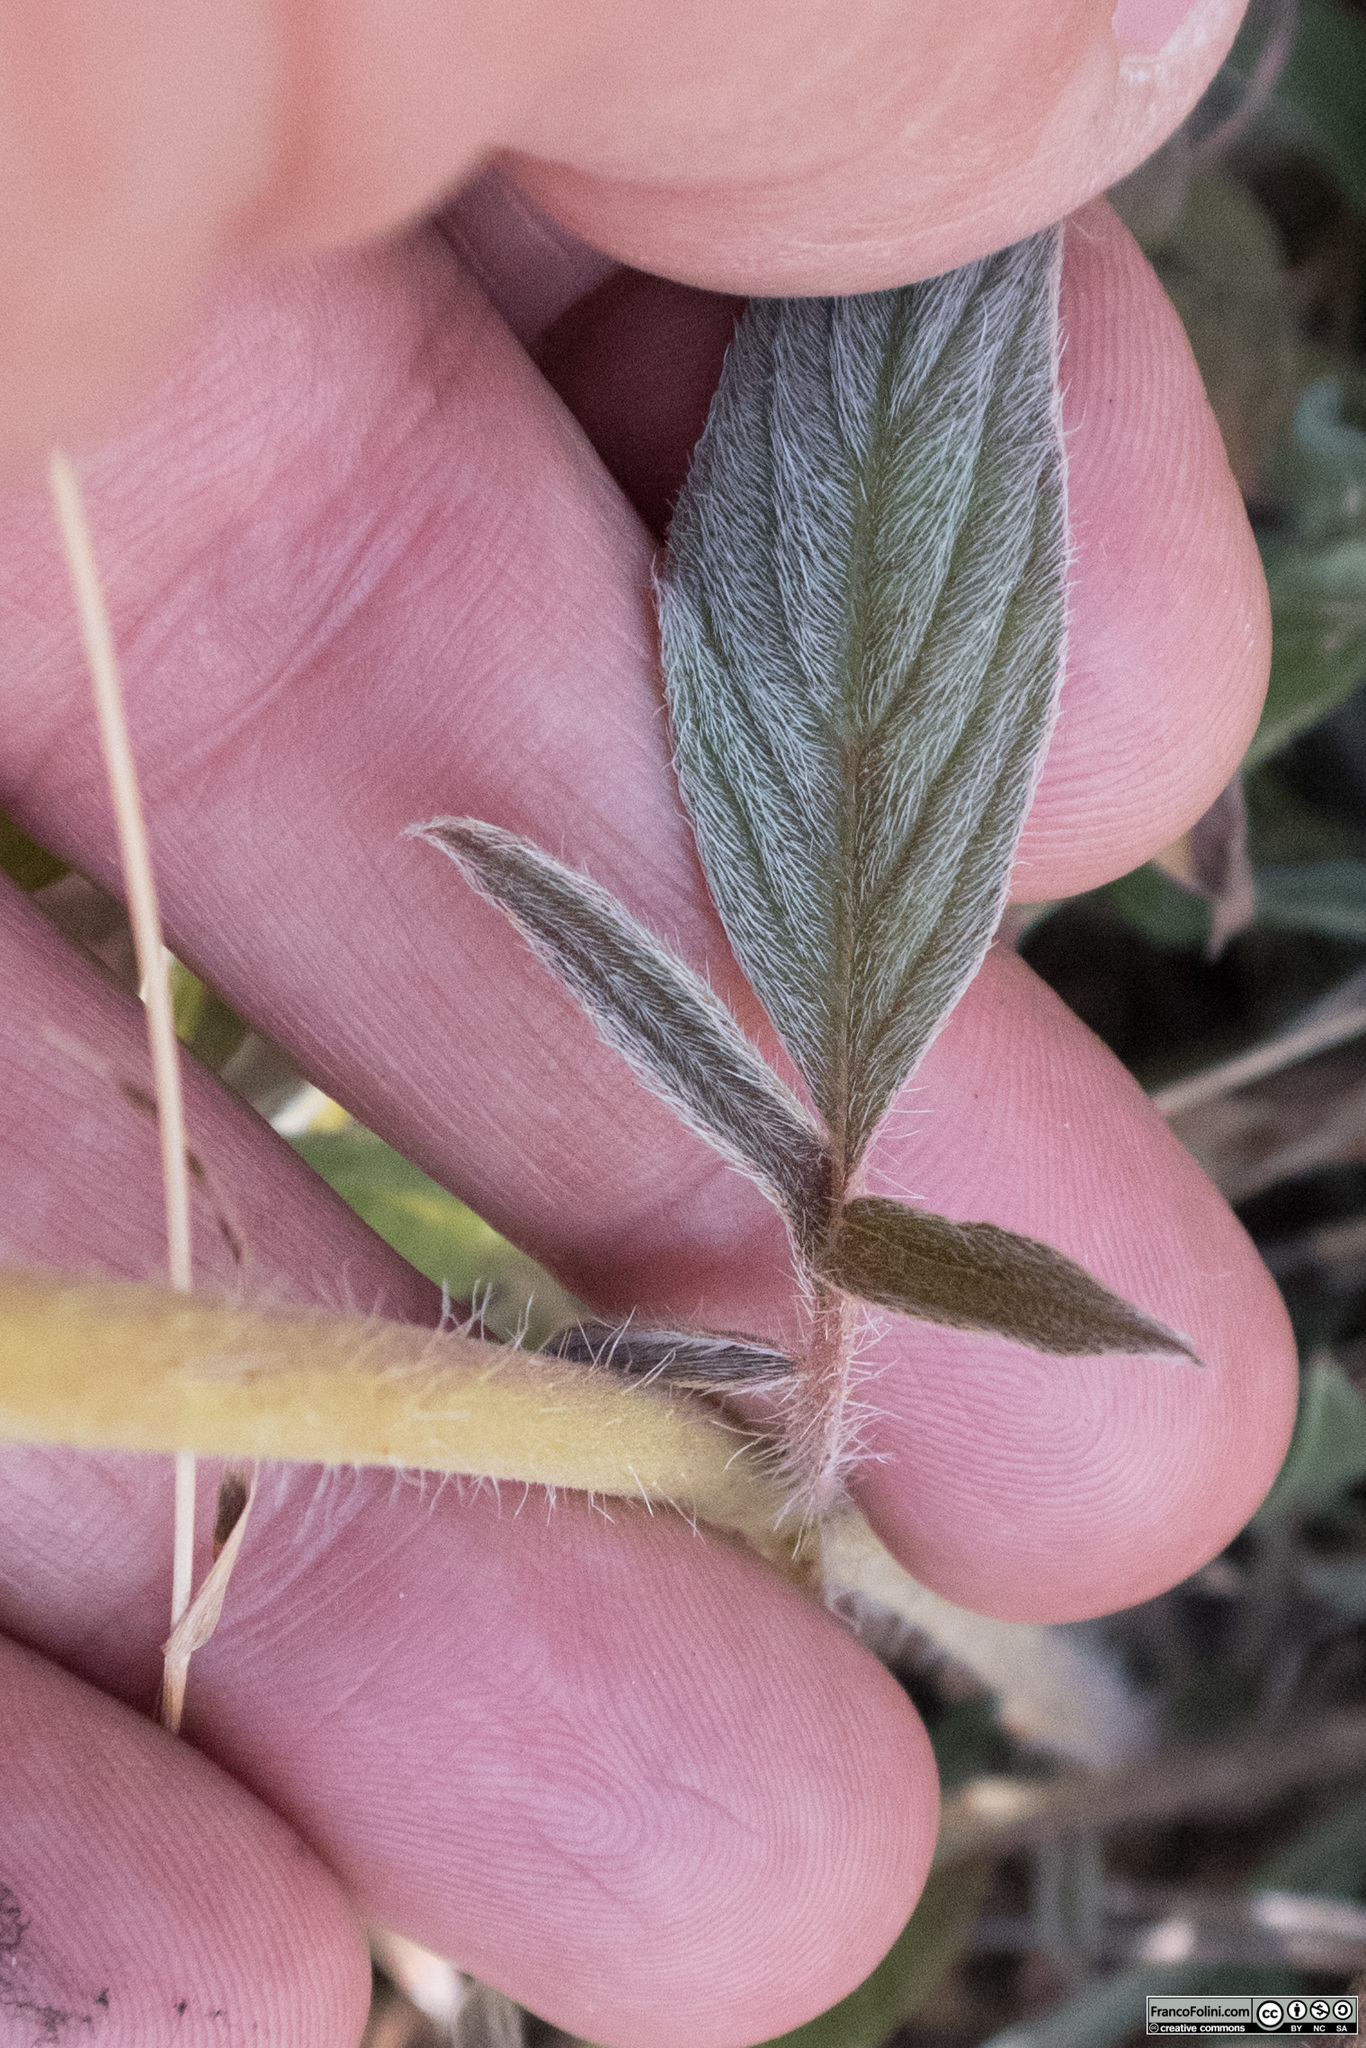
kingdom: Plantae
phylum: Tracheophyta
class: Magnoliopsida
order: Boraginales
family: Hydrophyllaceae
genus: Phacelia
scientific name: Phacelia imbricata
